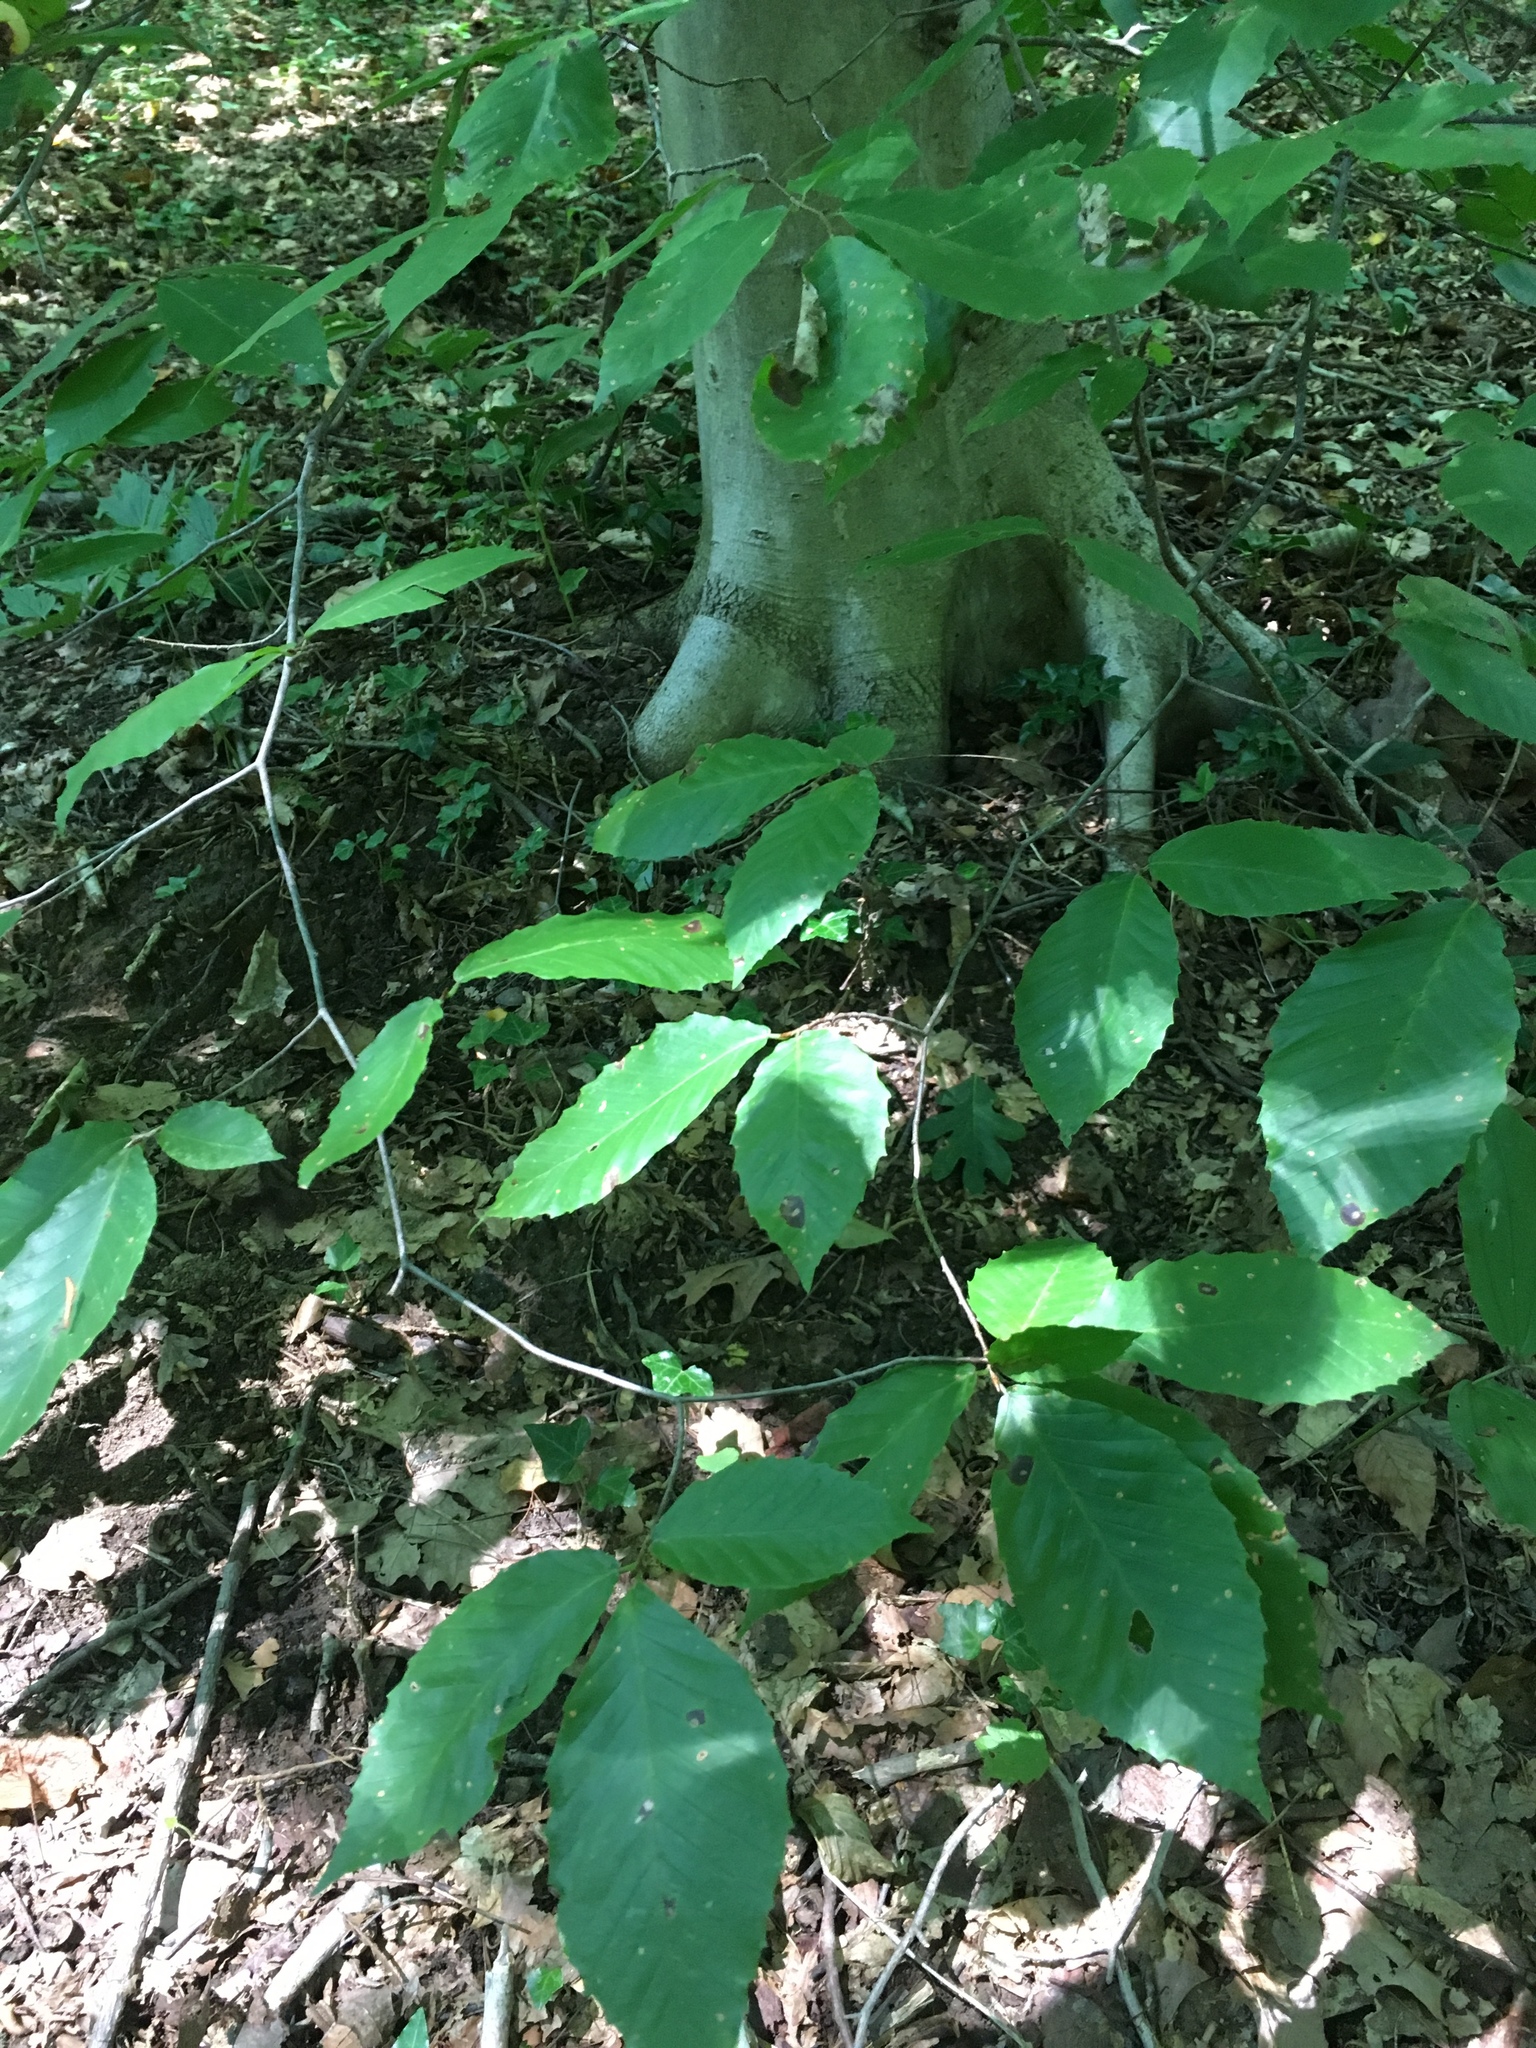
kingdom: Plantae
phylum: Tracheophyta
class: Magnoliopsida
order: Fagales
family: Fagaceae
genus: Fagus
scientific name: Fagus grandifolia
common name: American beech
